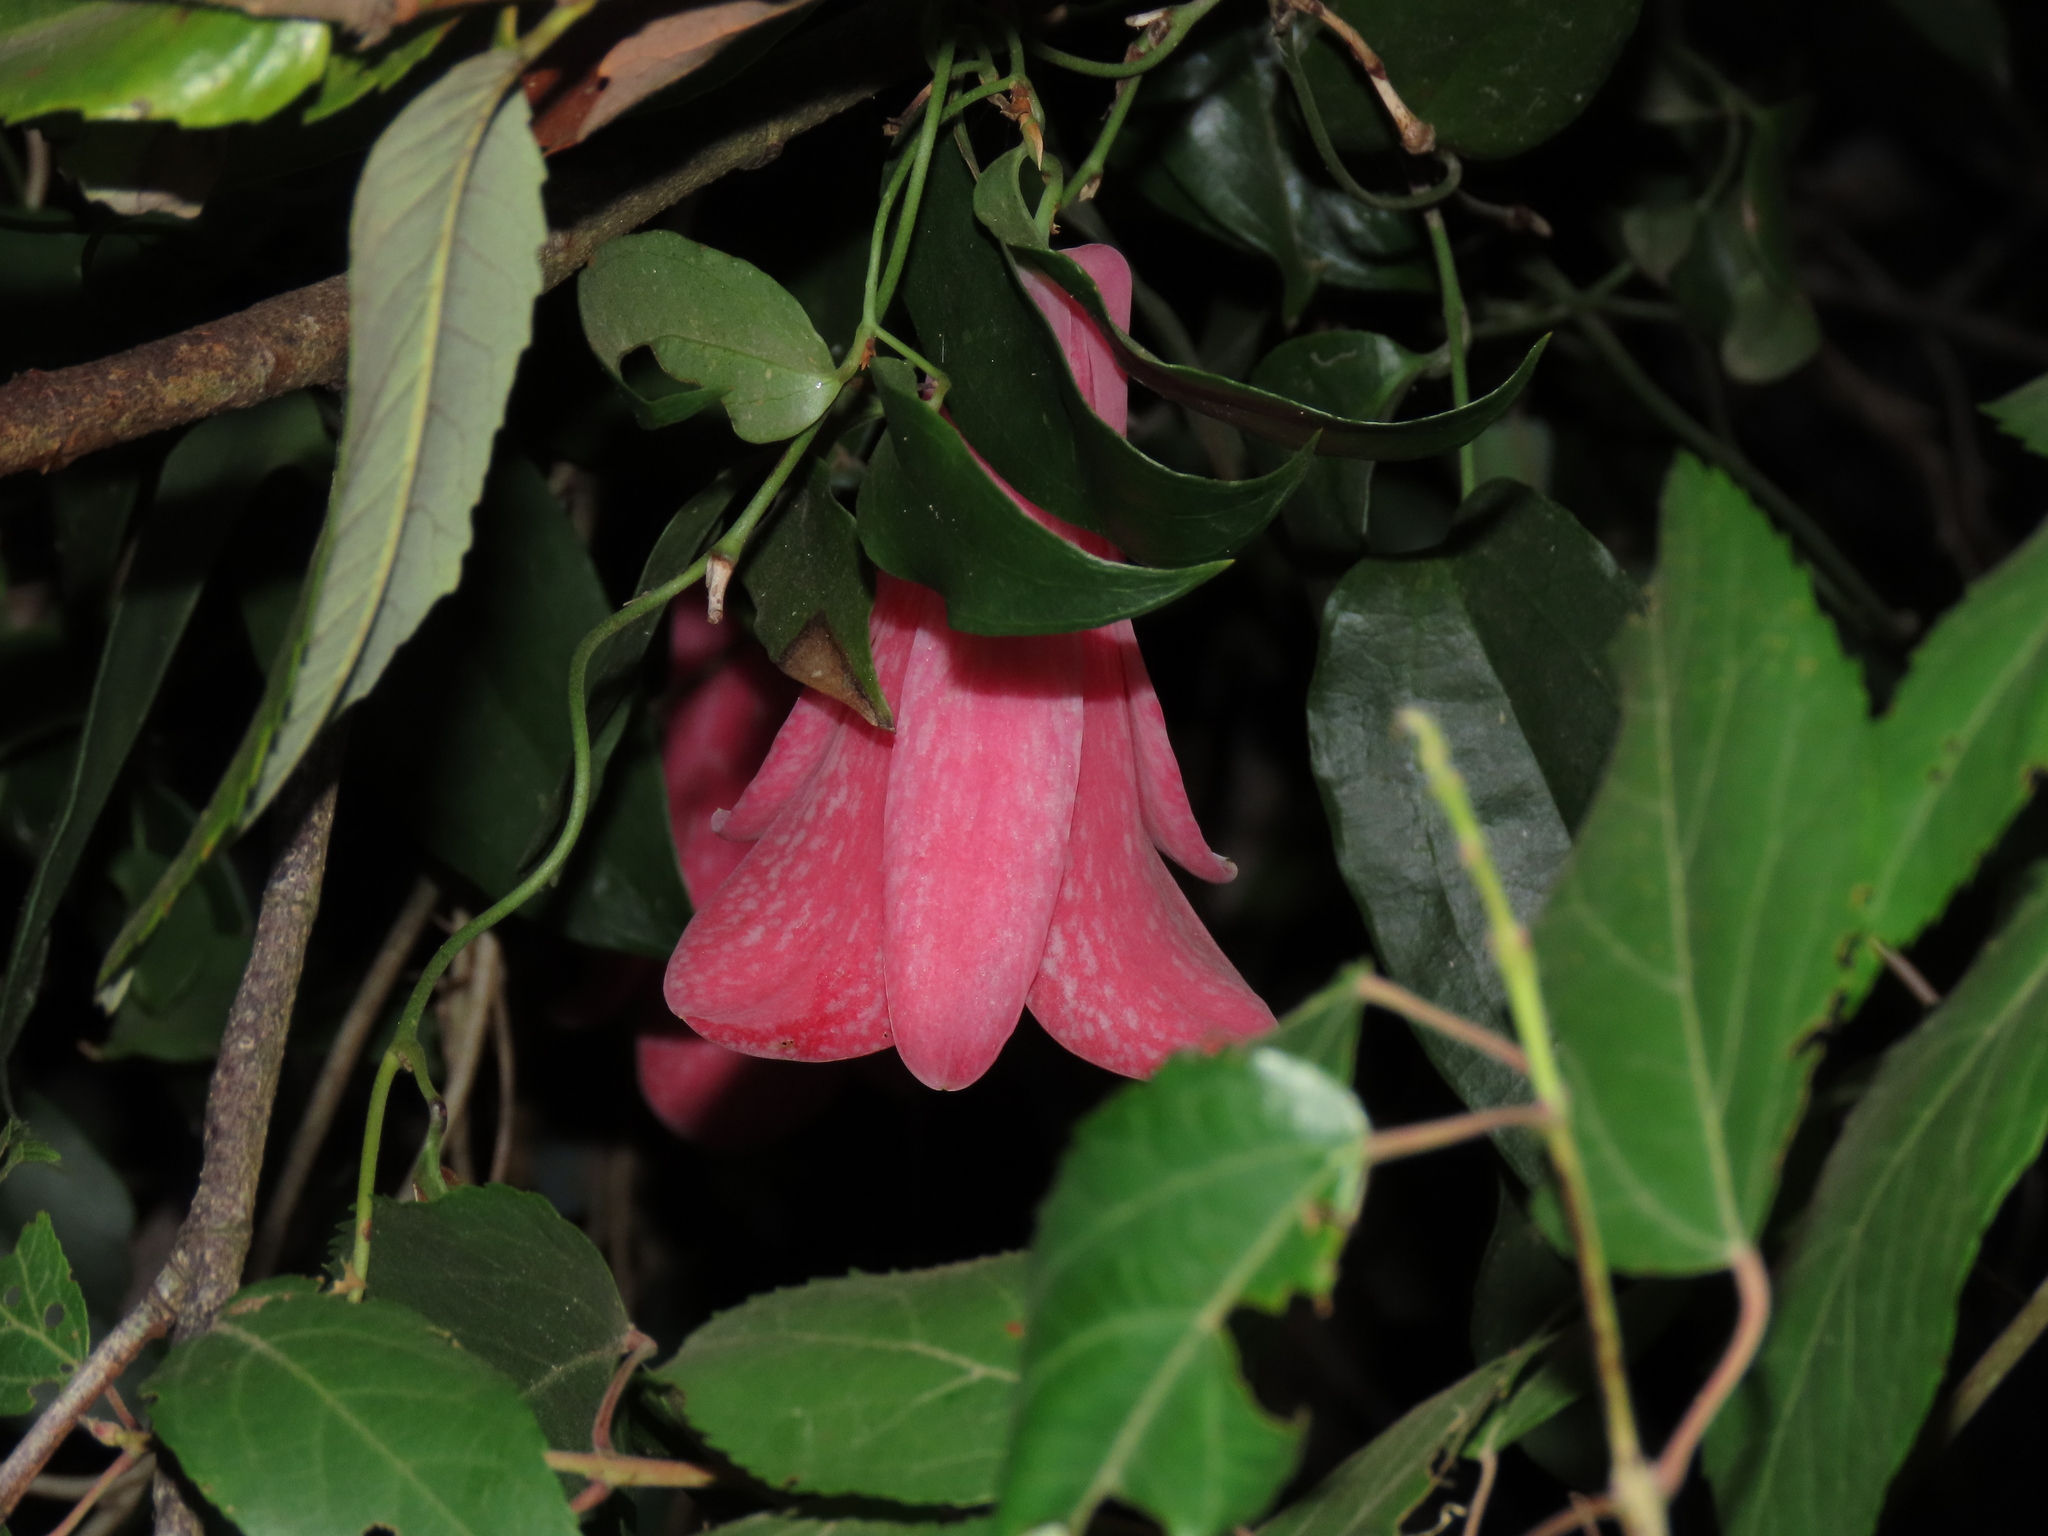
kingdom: Plantae
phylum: Tracheophyta
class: Liliopsida
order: Liliales
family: Philesiaceae
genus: Lapageria
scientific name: Lapageria rosea
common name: Chilean-bellflower
